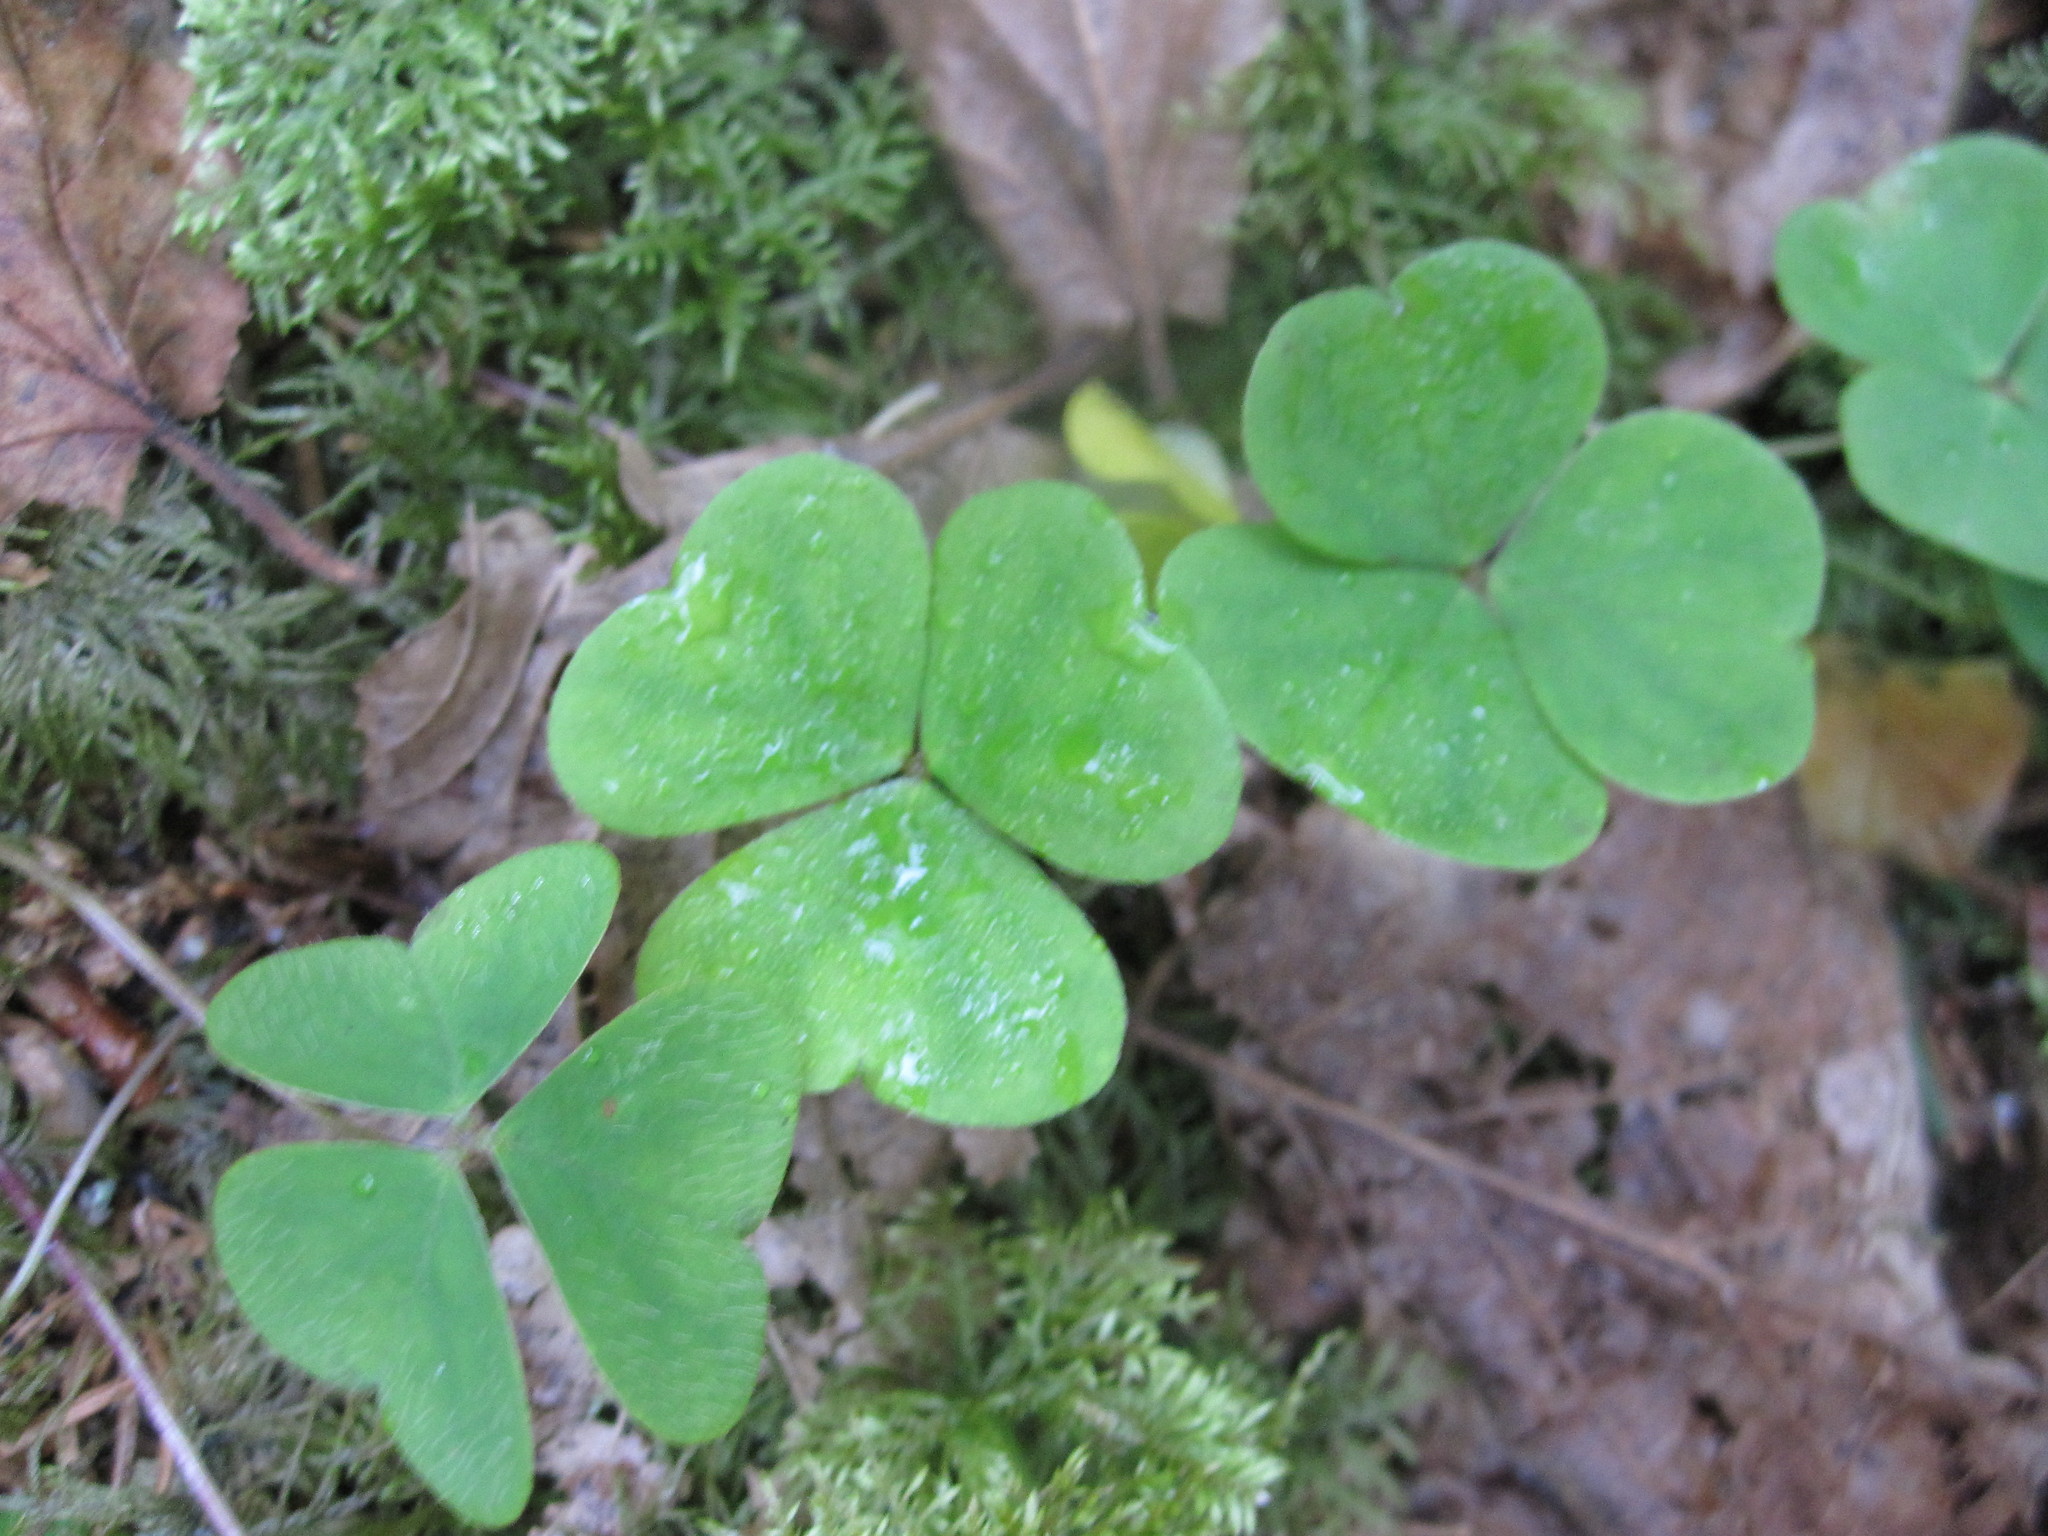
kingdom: Plantae
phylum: Tracheophyta
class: Magnoliopsida
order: Oxalidales
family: Oxalidaceae
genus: Oxalis
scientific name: Oxalis acetosella
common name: Wood-sorrel
